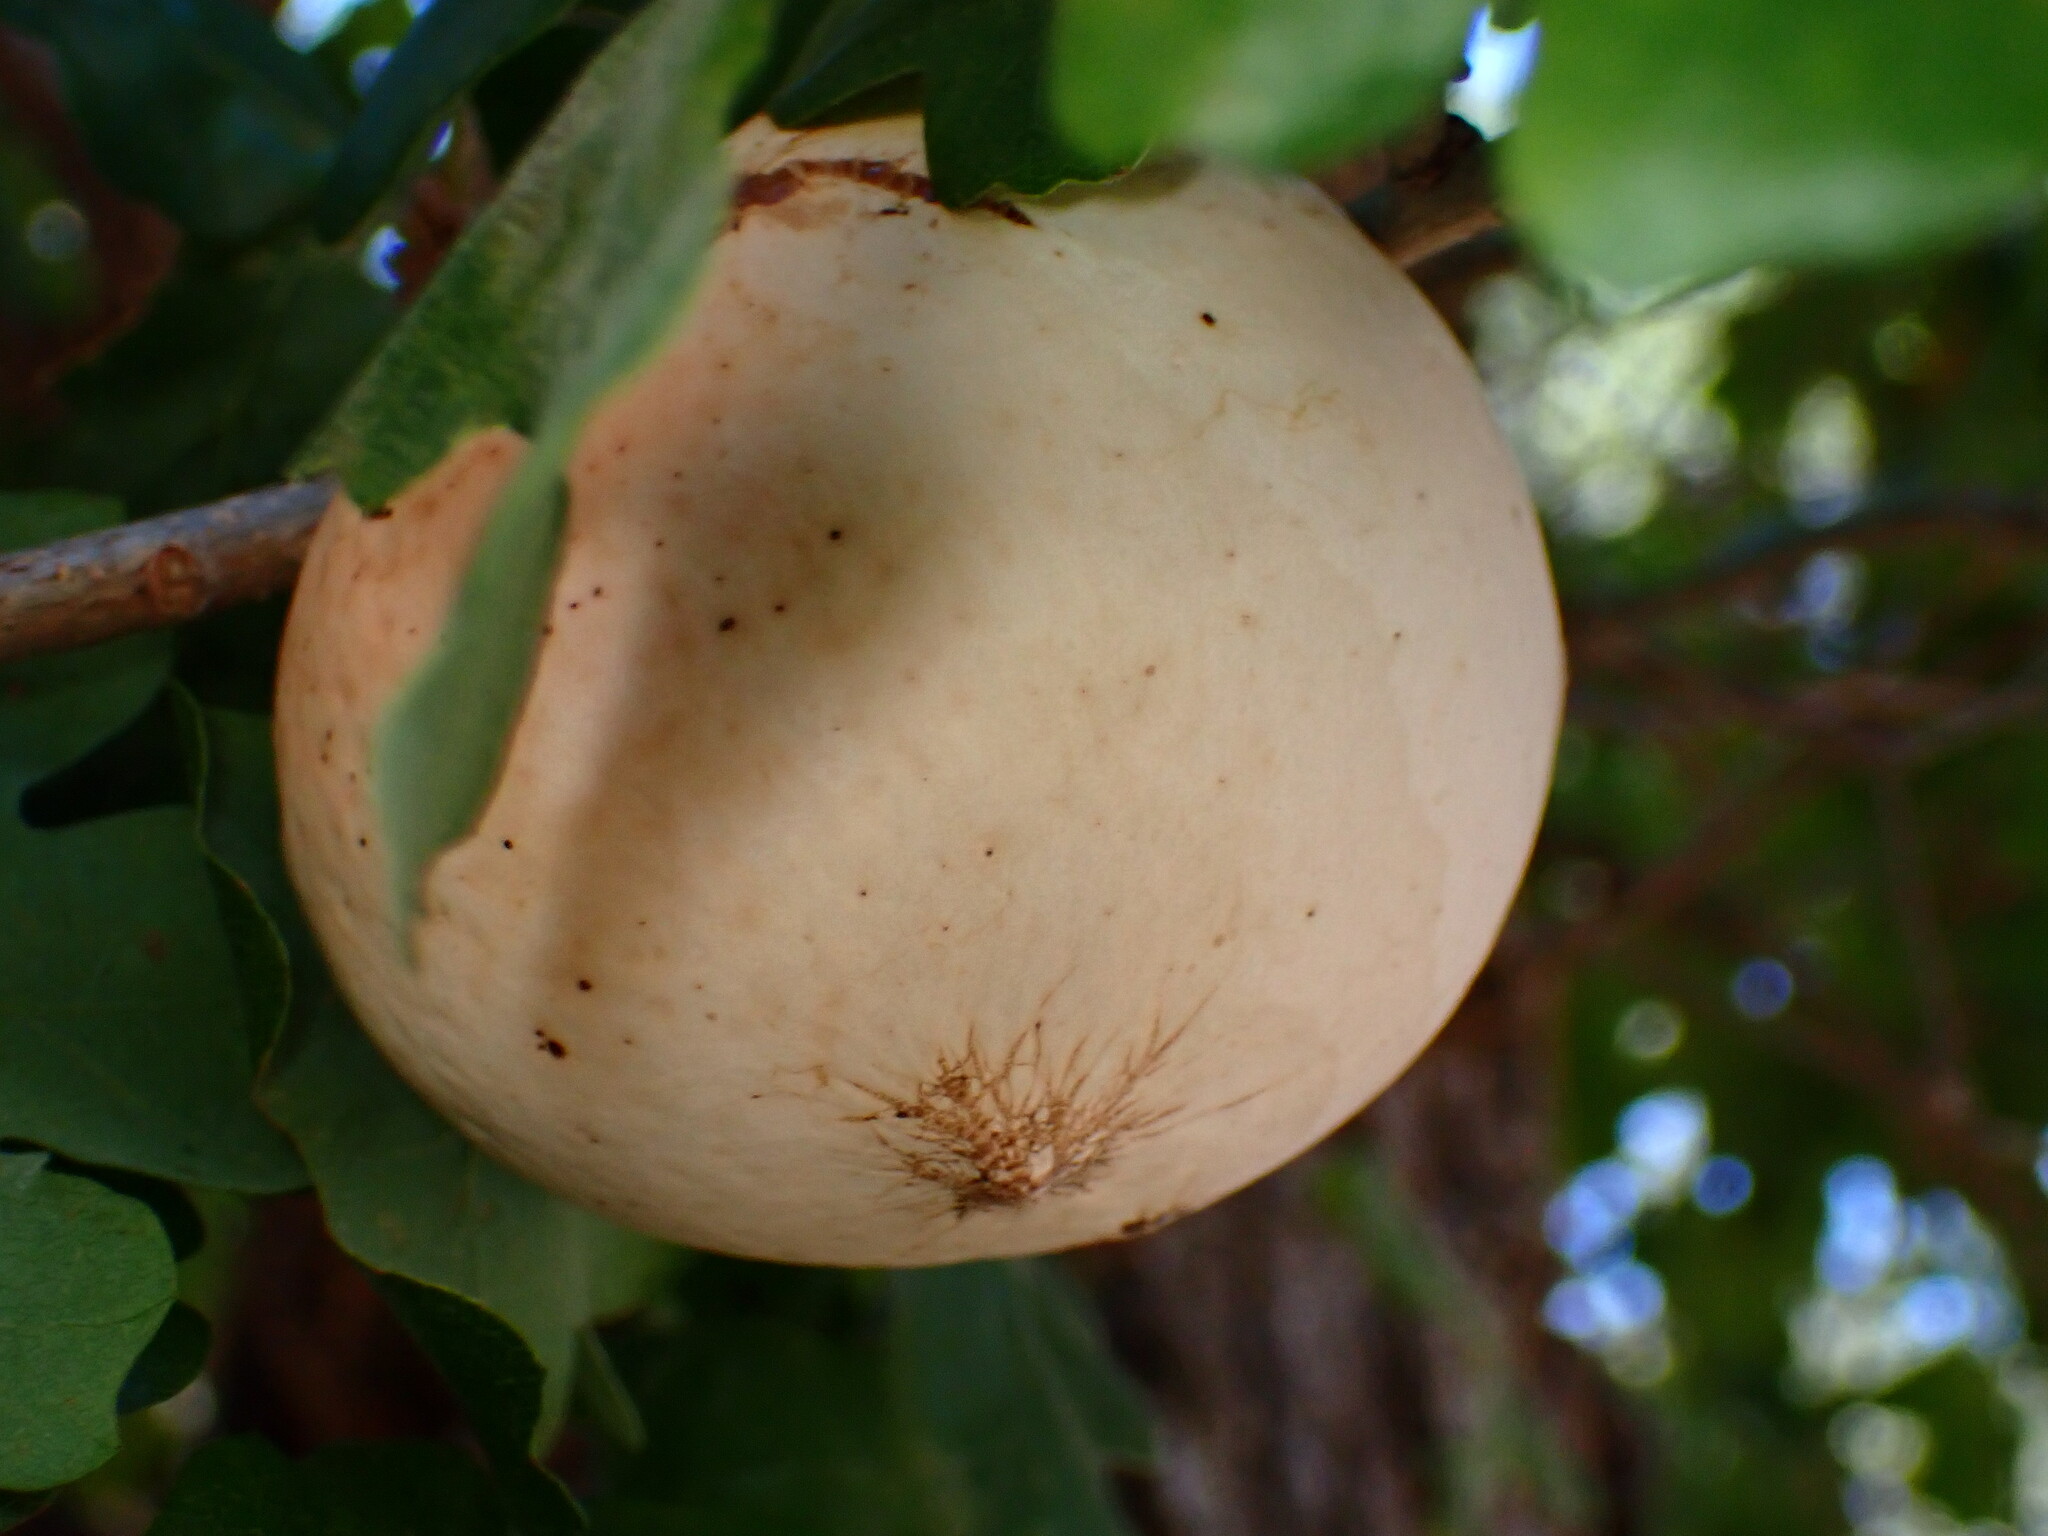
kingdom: Animalia
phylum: Arthropoda
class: Insecta
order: Hymenoptera
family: Cynipidae
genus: Andricus
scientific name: Andricus quercuscalifornicus
